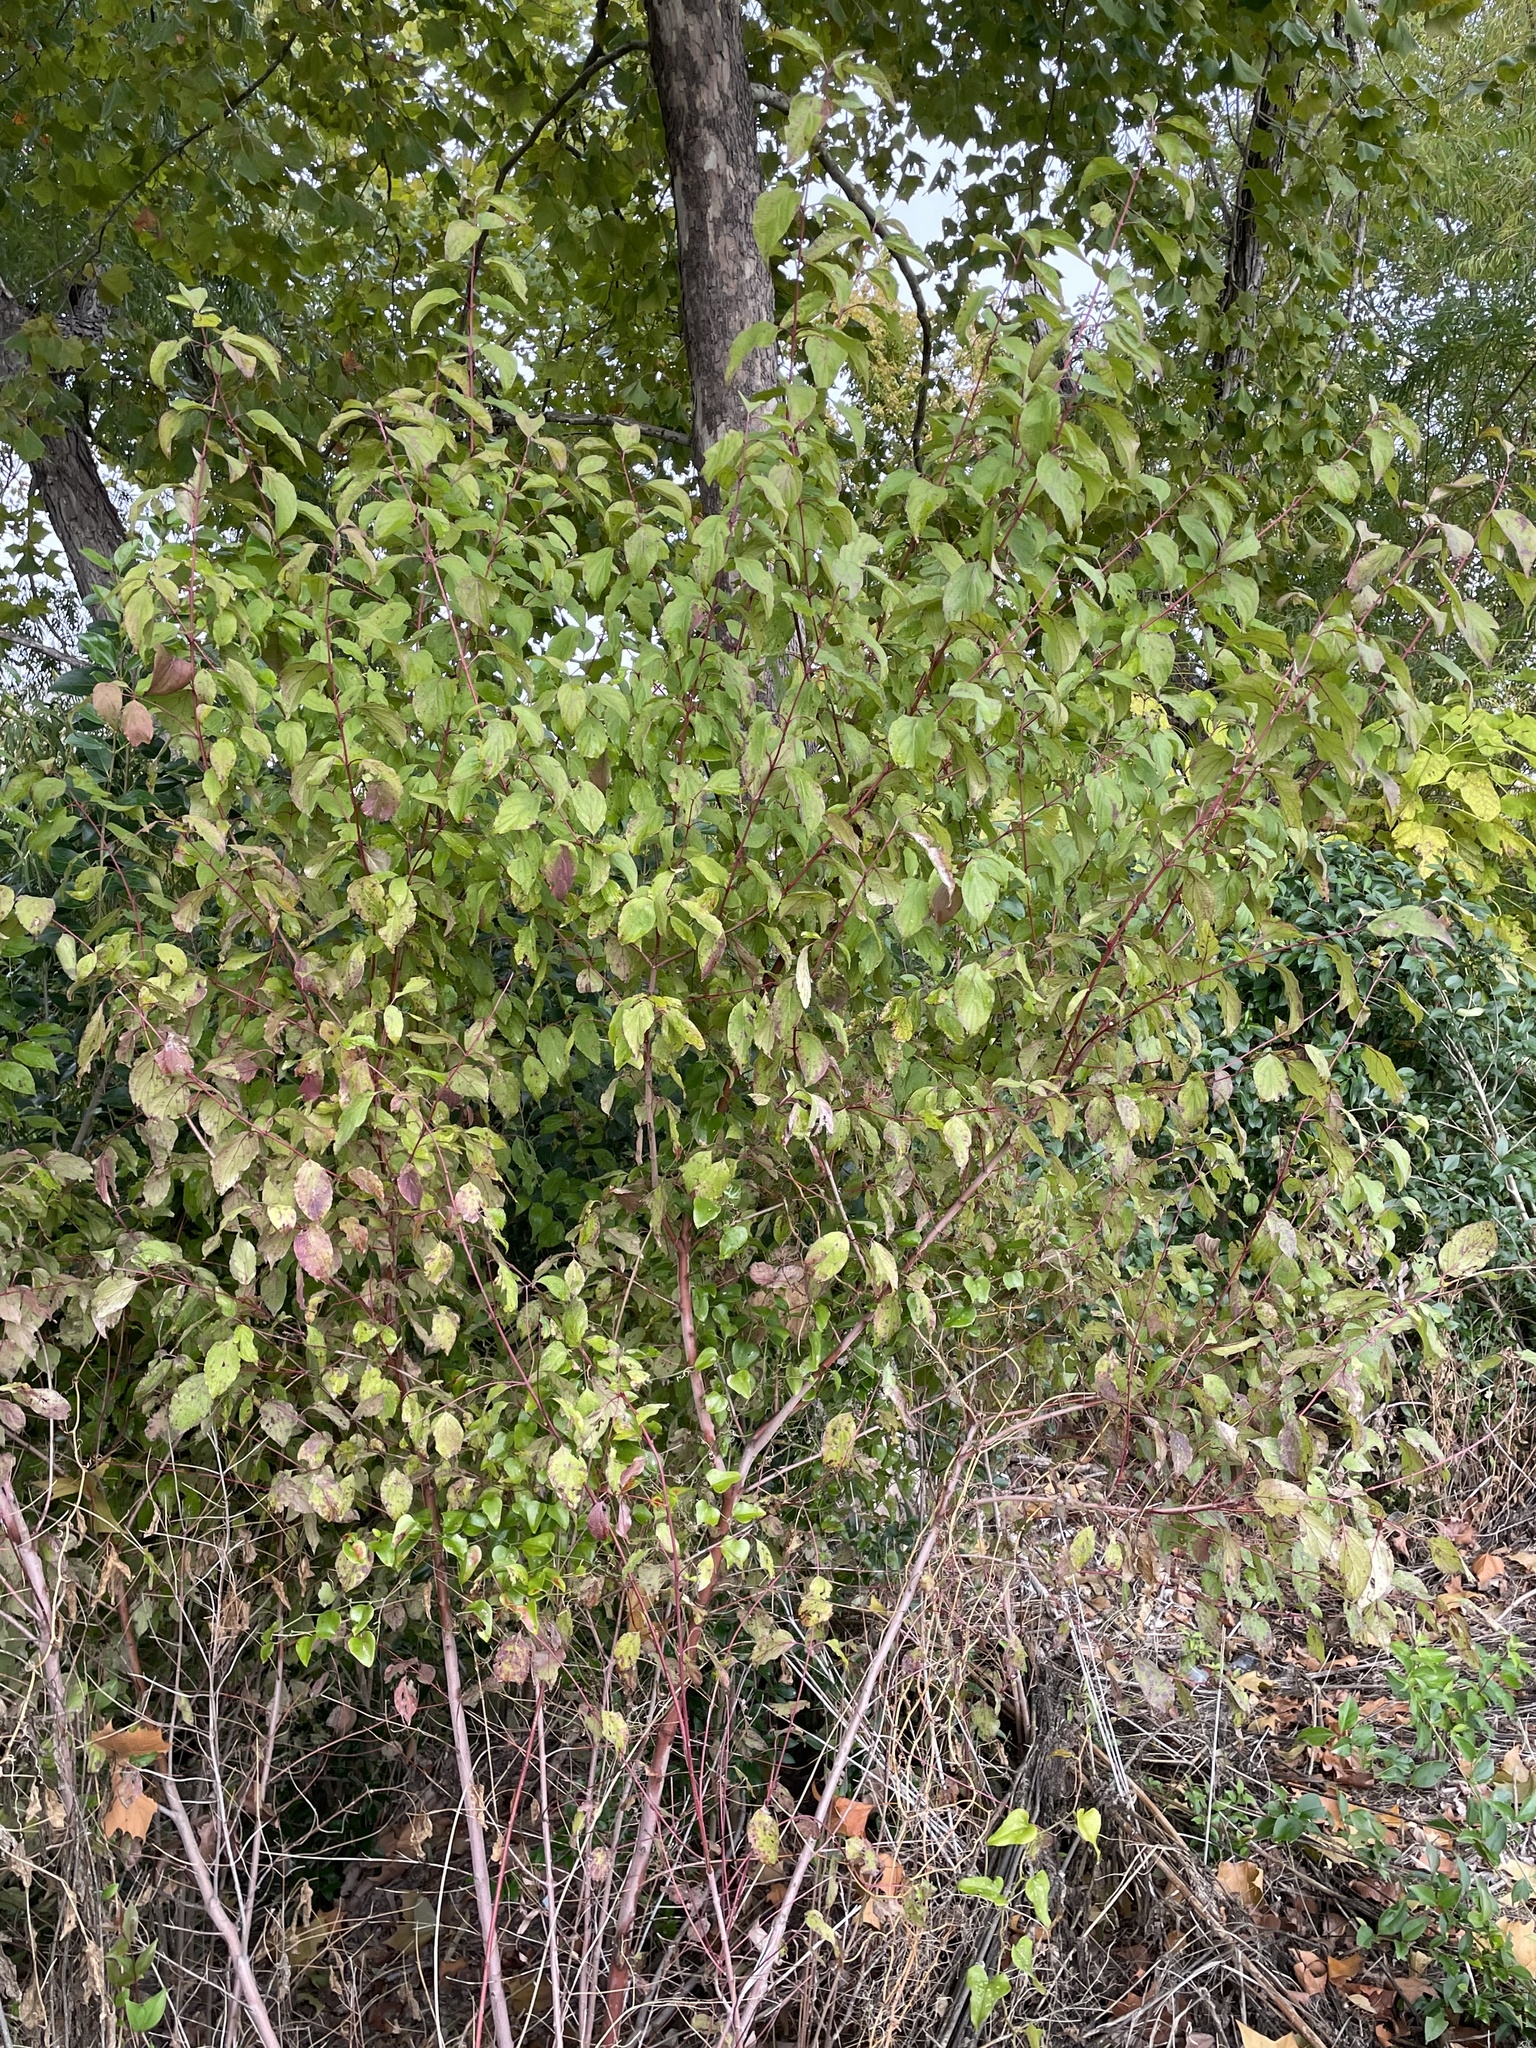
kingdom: Plantae
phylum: Tracheophyta
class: Magnoliopsida
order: Cornales
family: Cornaceae
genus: Cornus
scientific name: Cornus drummondii
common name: Rough-leaf dogwood
